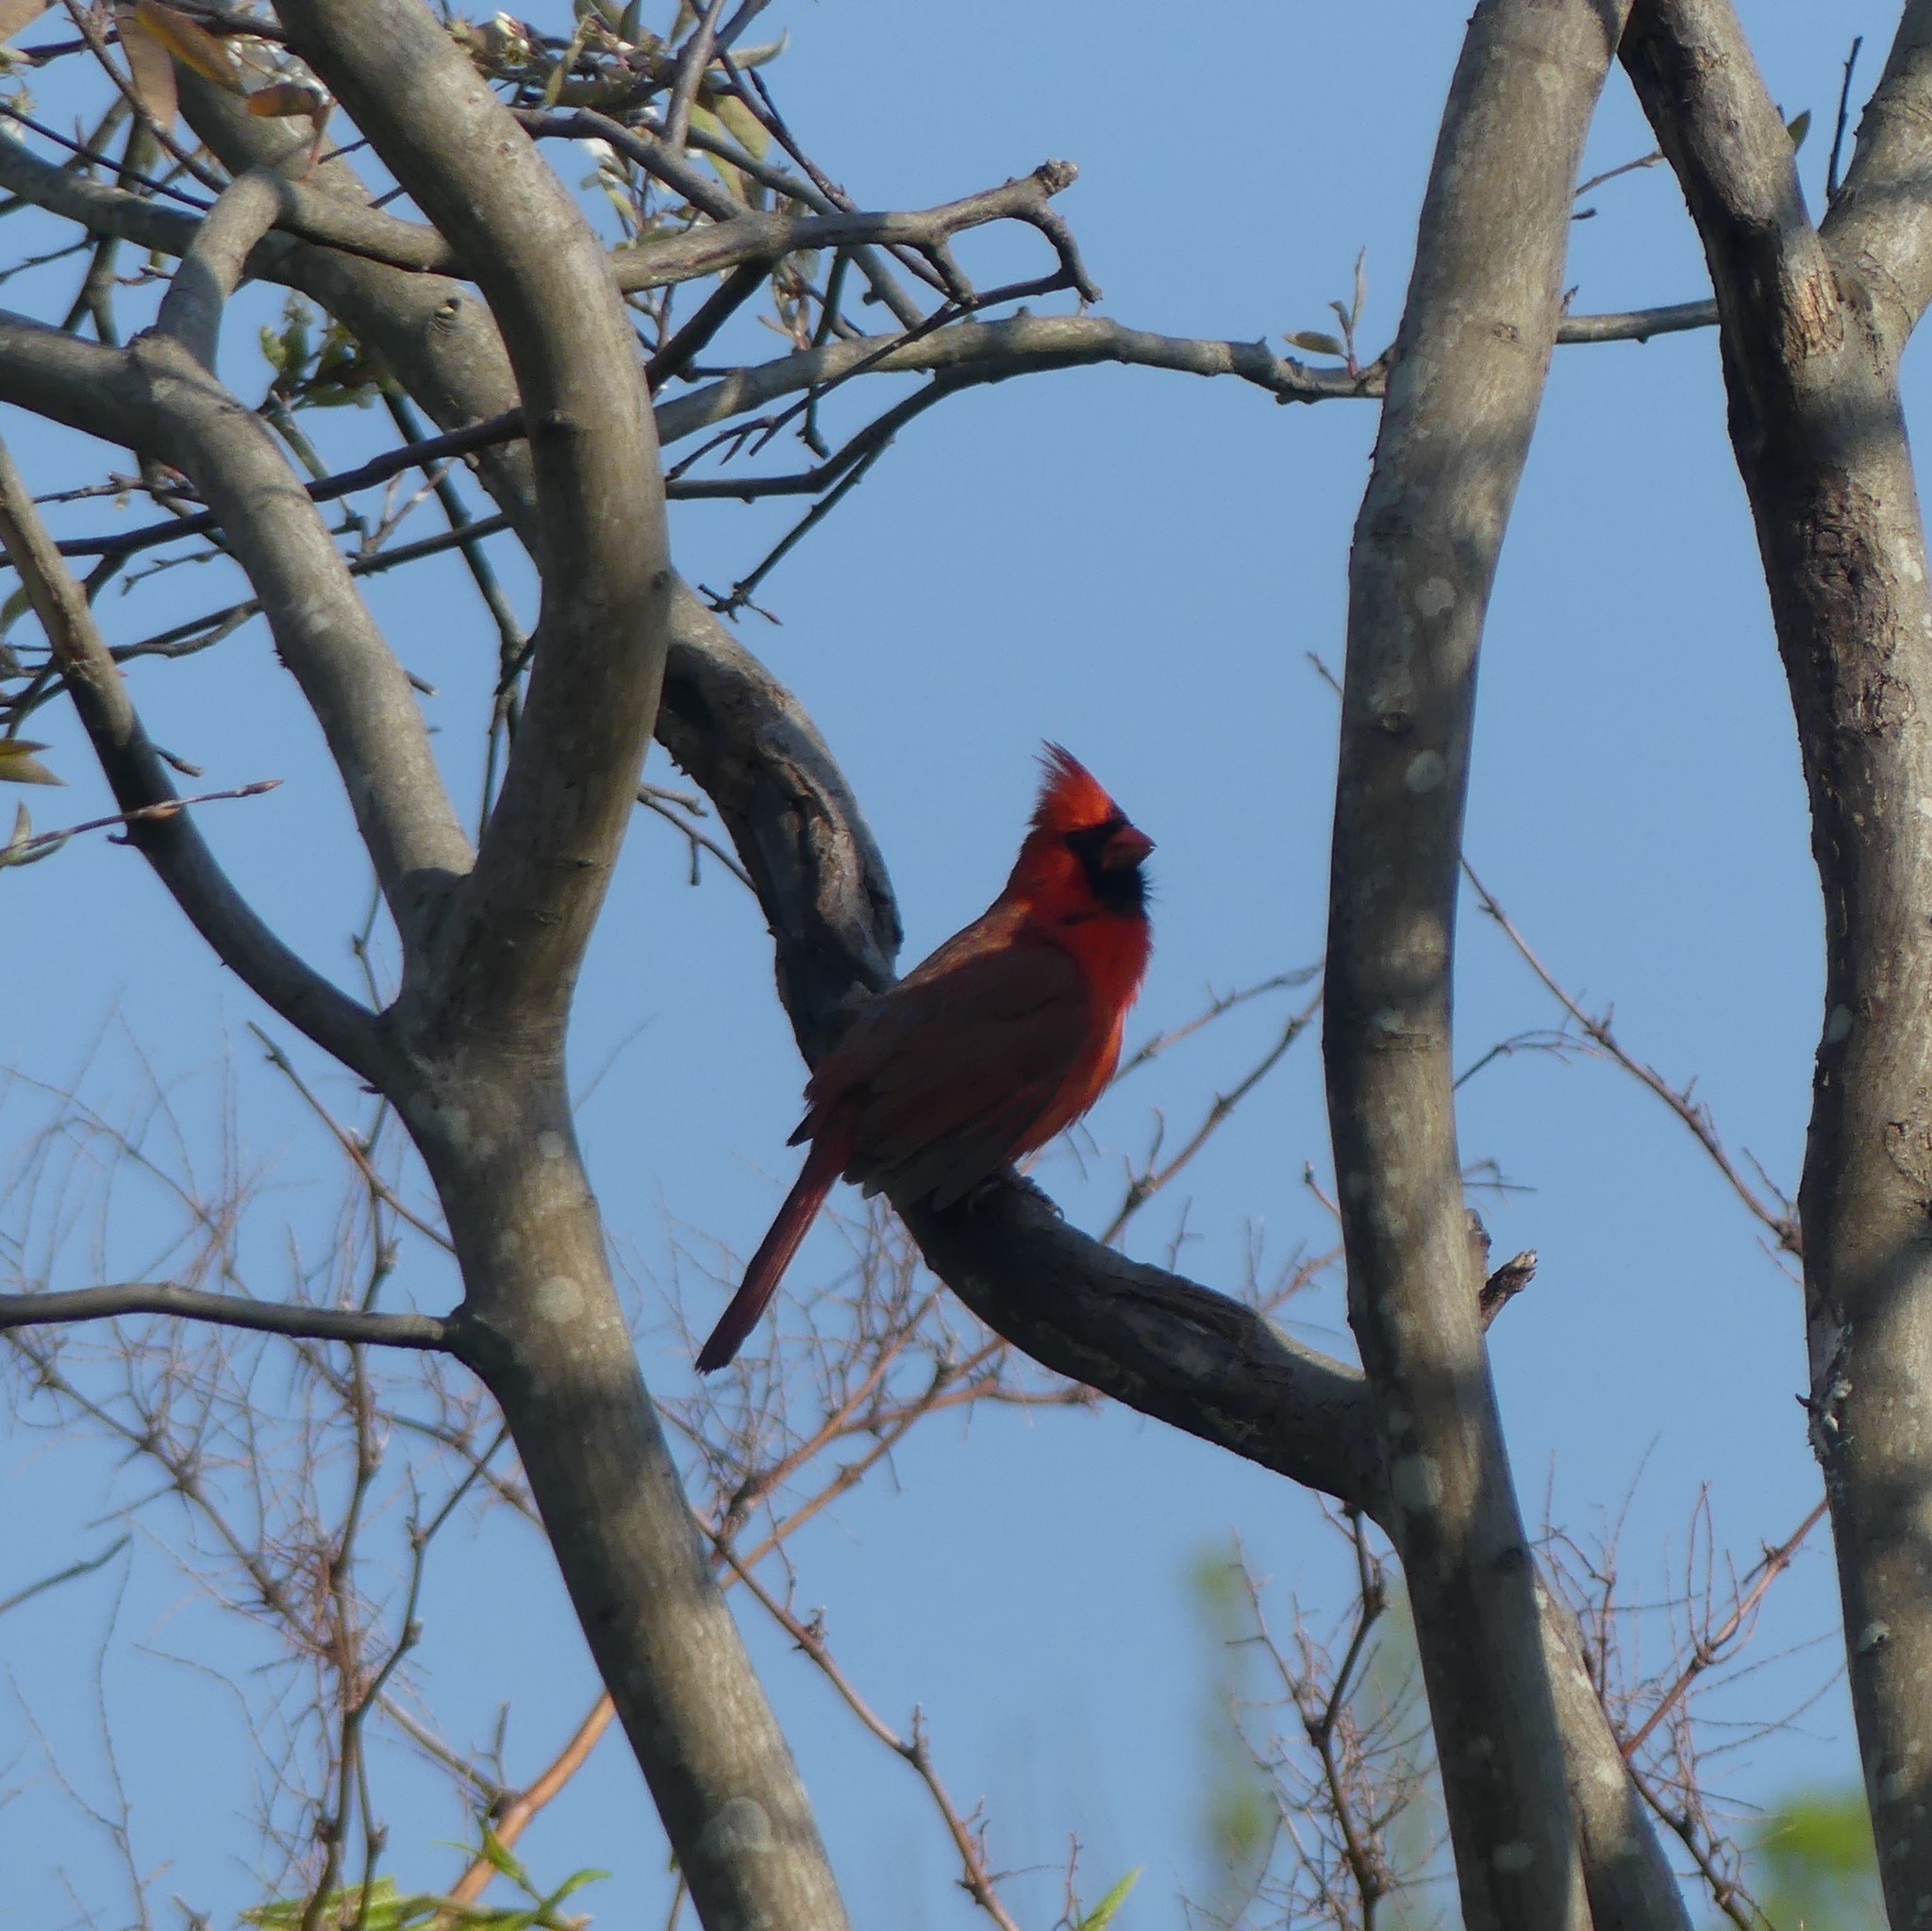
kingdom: Animalia
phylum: Chordata
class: Aves
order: Passeriformes
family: Cardinalidae
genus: Cardinalis
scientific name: Cardinalis cardinalis
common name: Northern cardinal
